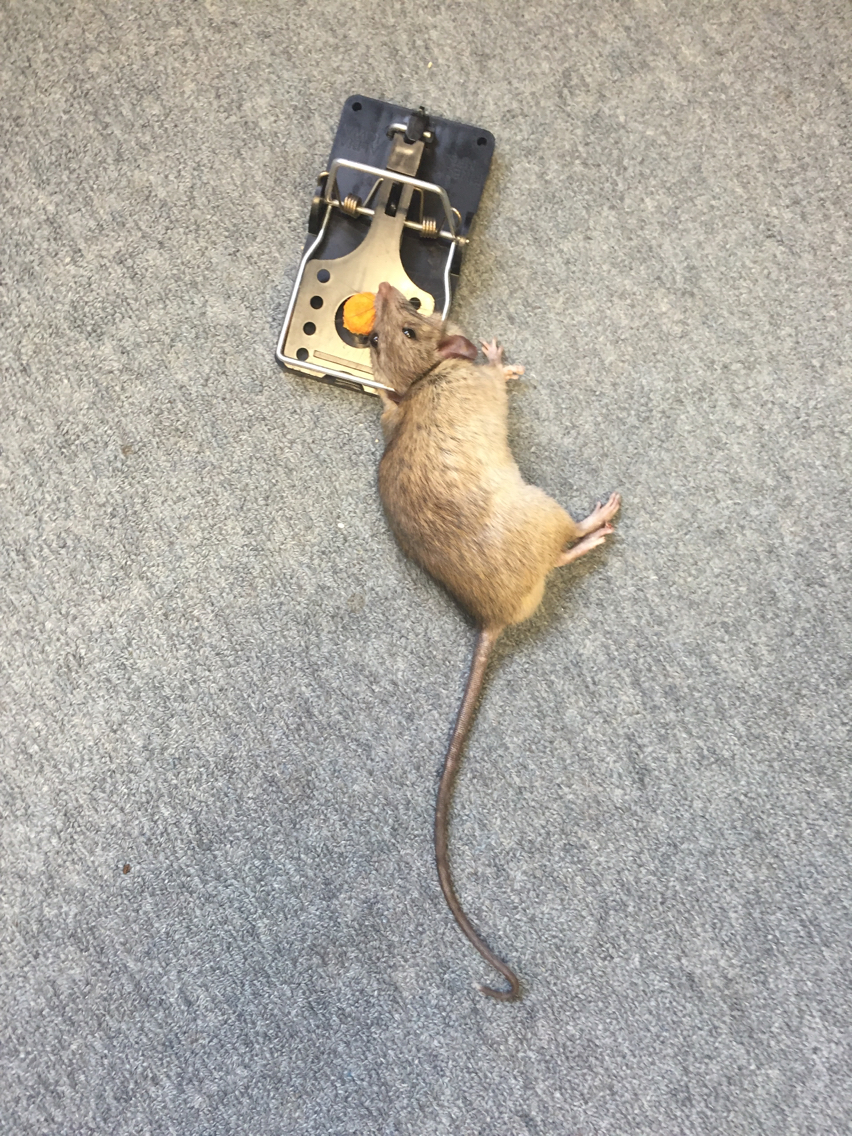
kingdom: Animalia
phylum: Chordata
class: Mammalia
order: Rodentia
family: Muridae
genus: Rattus
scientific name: Rattus rattus
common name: Black rat
